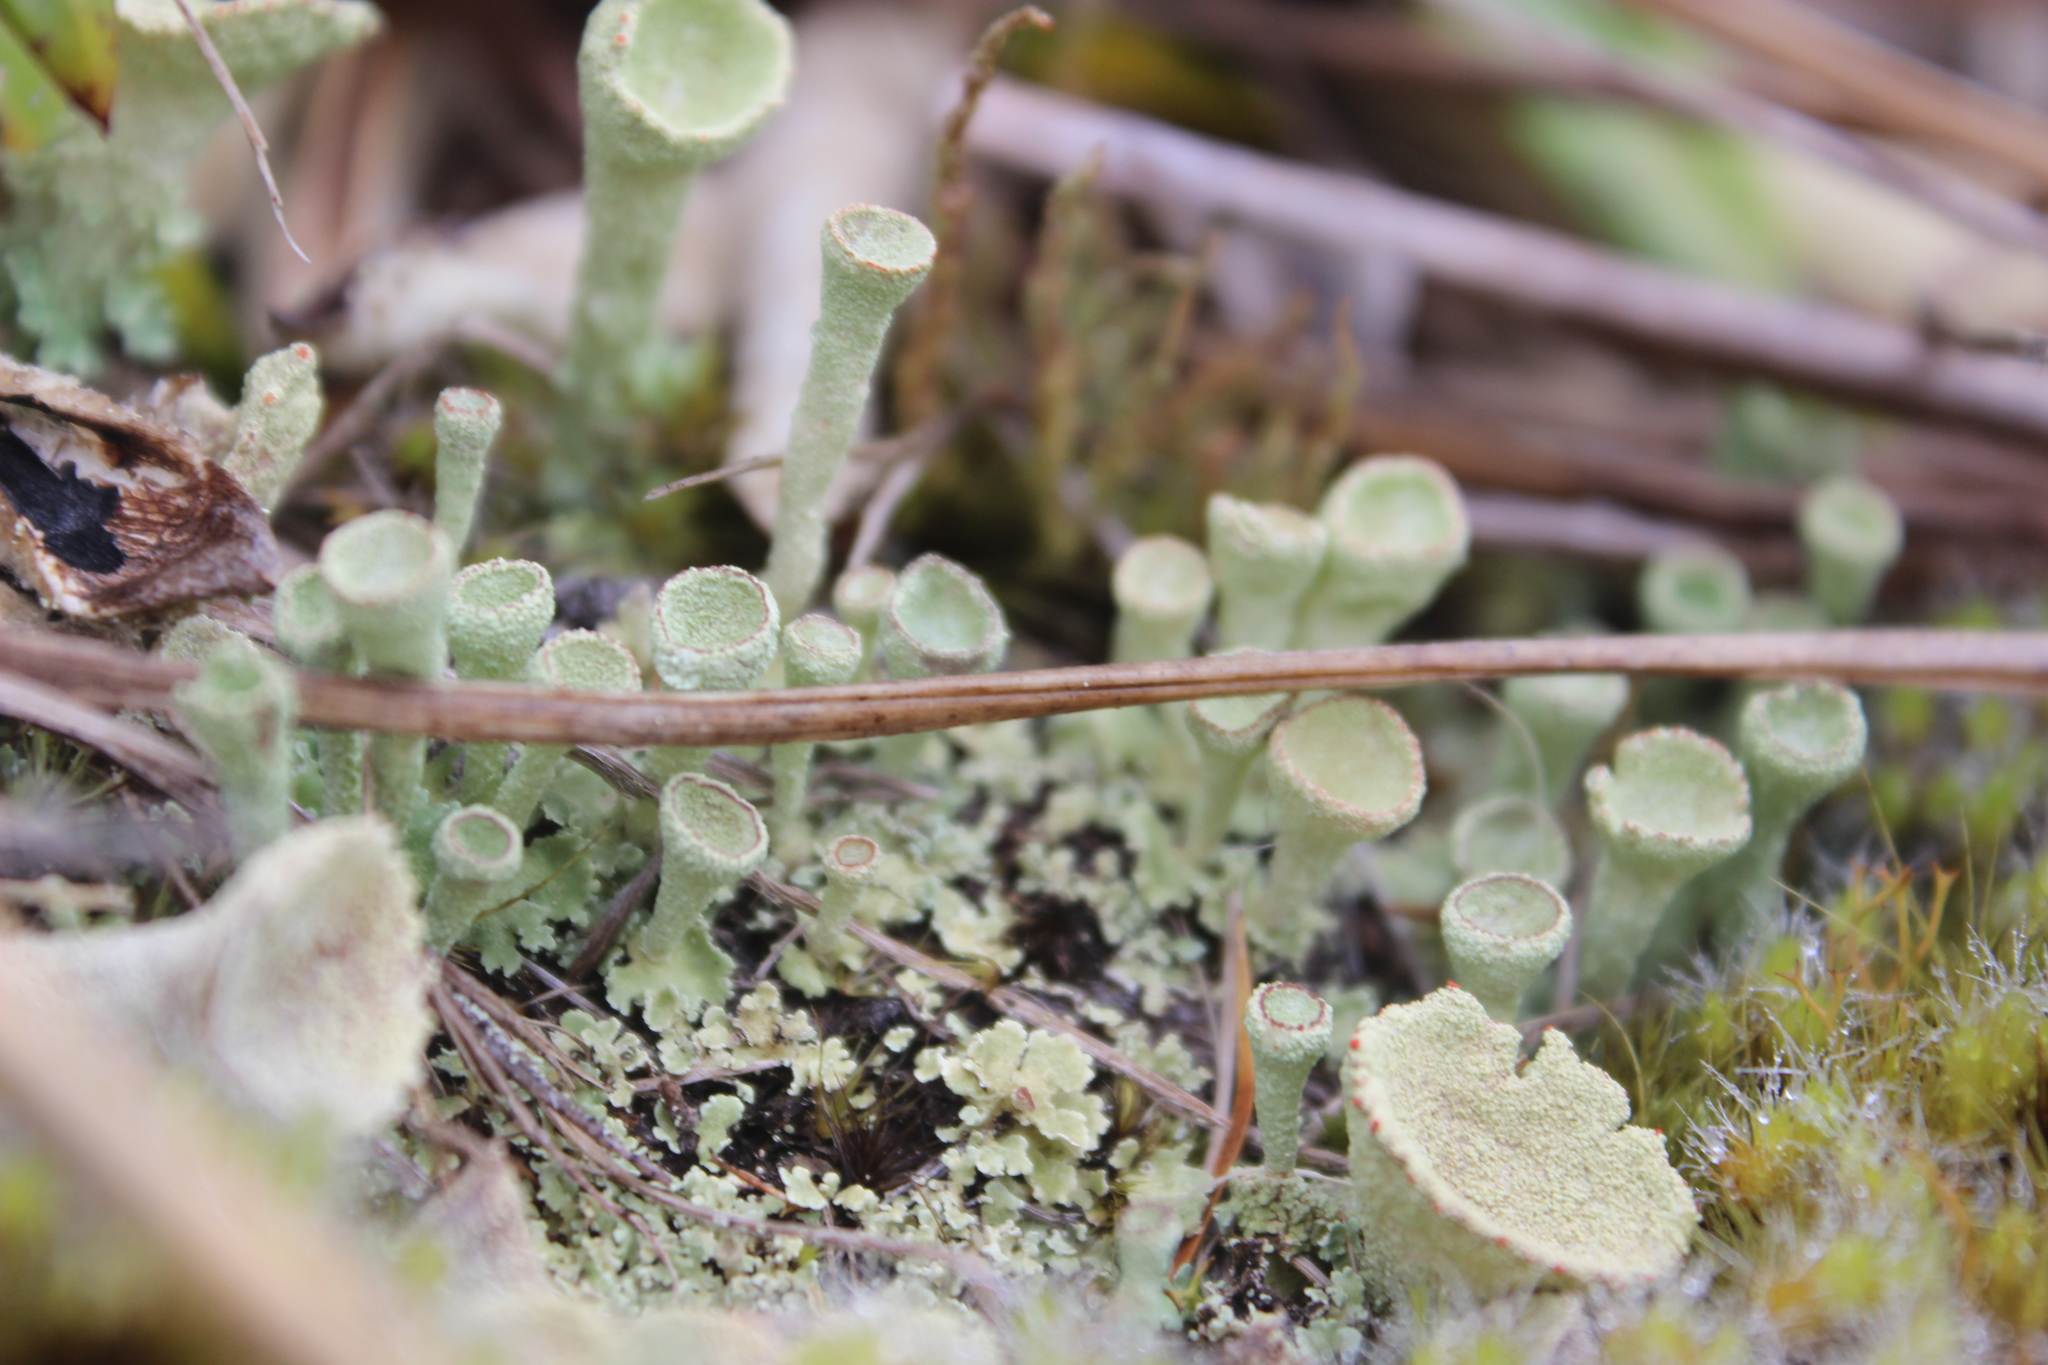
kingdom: Fungi
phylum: Ascomycota
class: Lecanoromycetes
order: Lecanorales
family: Cladoniaceae
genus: Cladonia
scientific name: Cladonia fimbriata
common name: Powdered trumpet lichen
